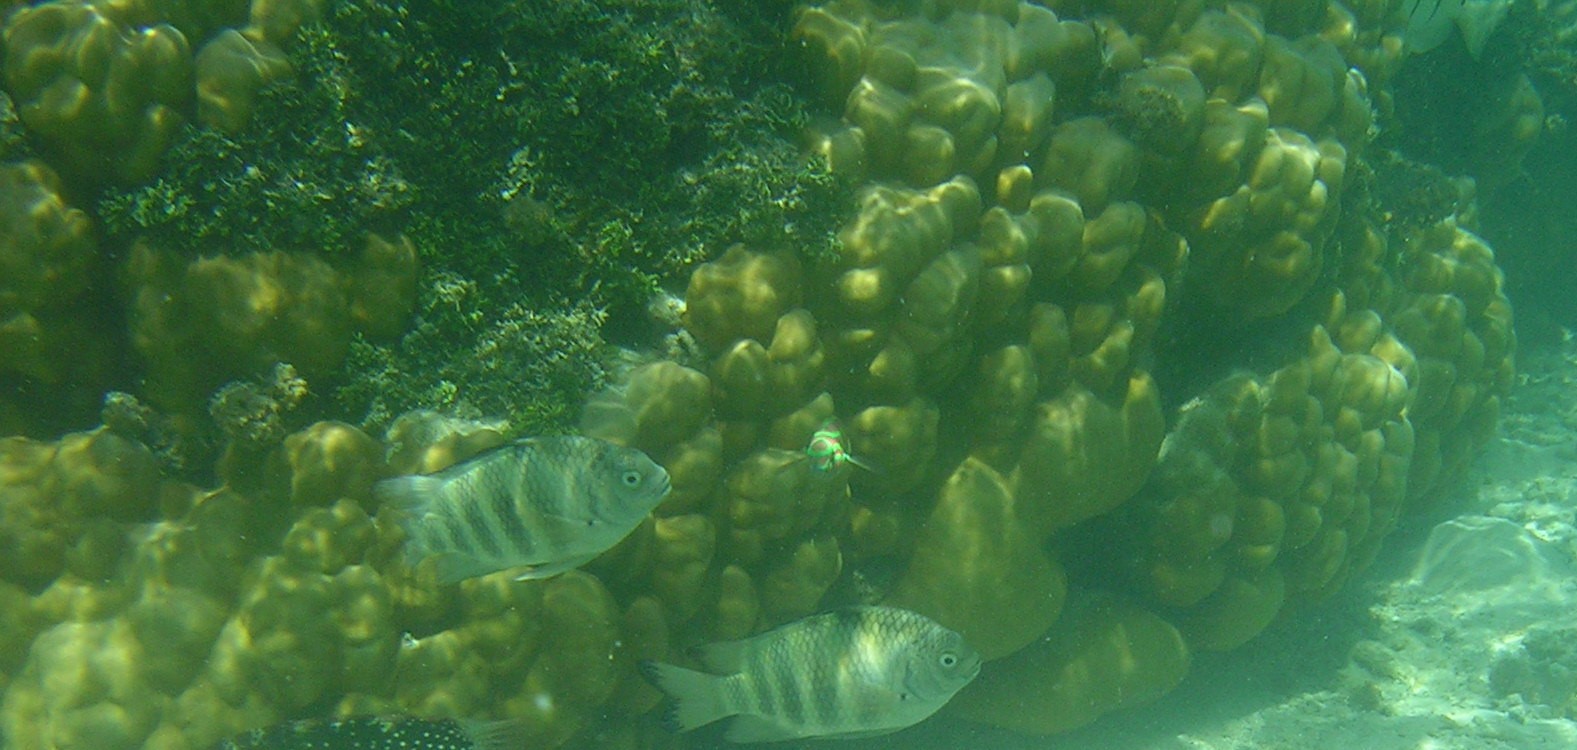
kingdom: Animalia
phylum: Chordata
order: Perciformes
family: Pomacentridae
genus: Abudefduf
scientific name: Abudefduf septemfasciatus
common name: Banded sergeant
